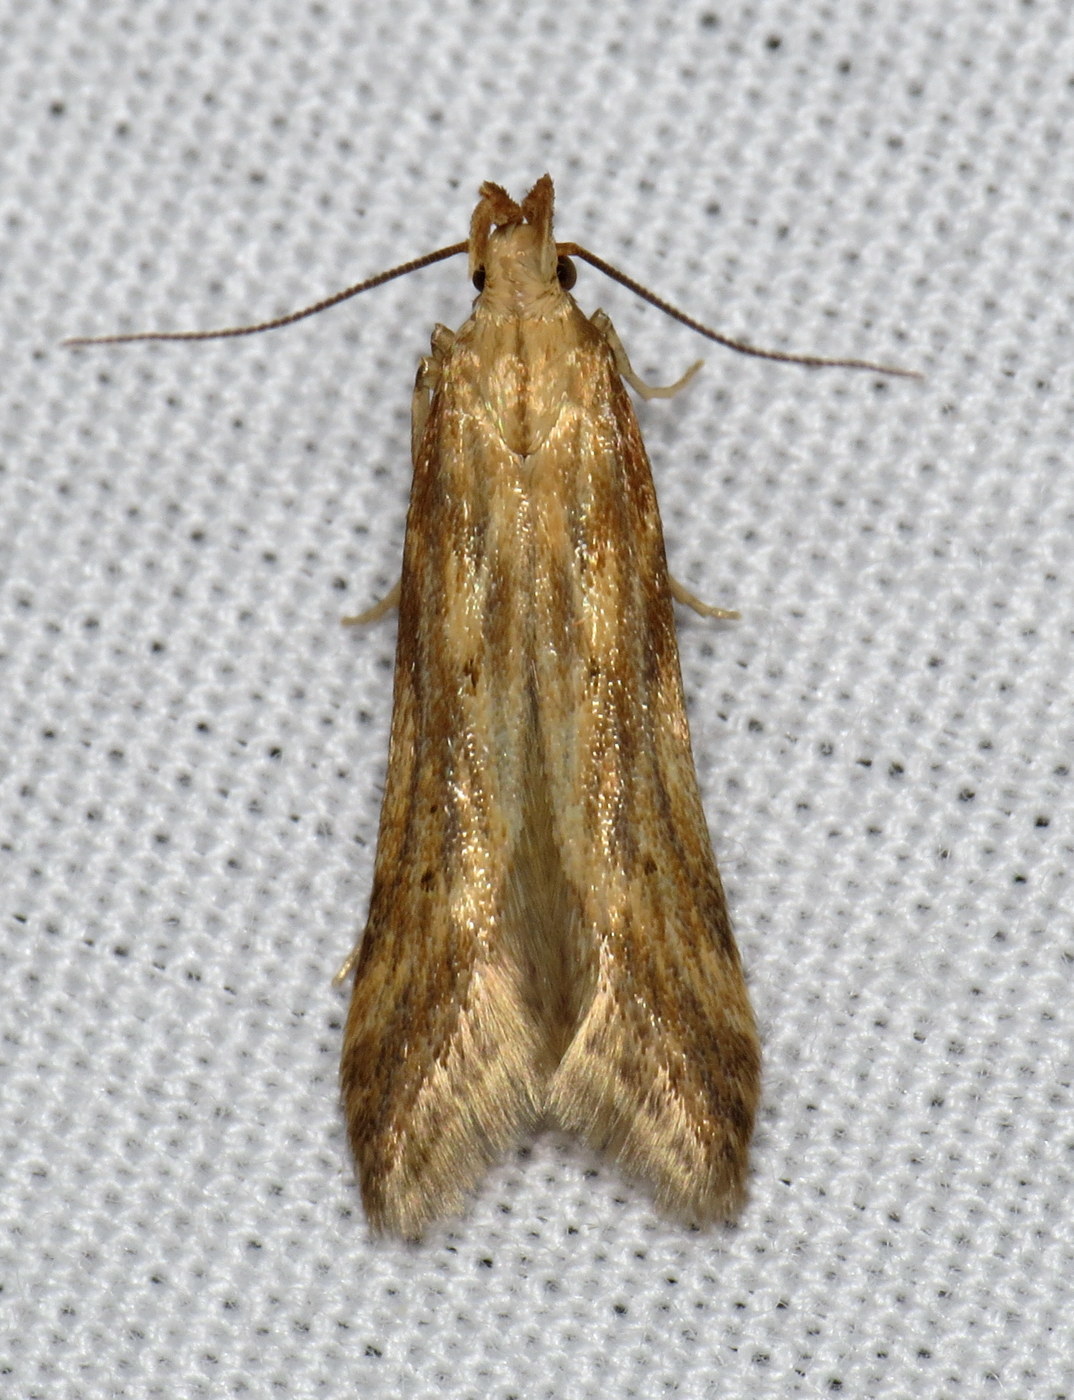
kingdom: Animalia
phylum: Arthropoda
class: Insecta
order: Lepidoptera
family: Gelechiidae
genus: Metzneria
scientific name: Metzneria lappella
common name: Burdock neb
